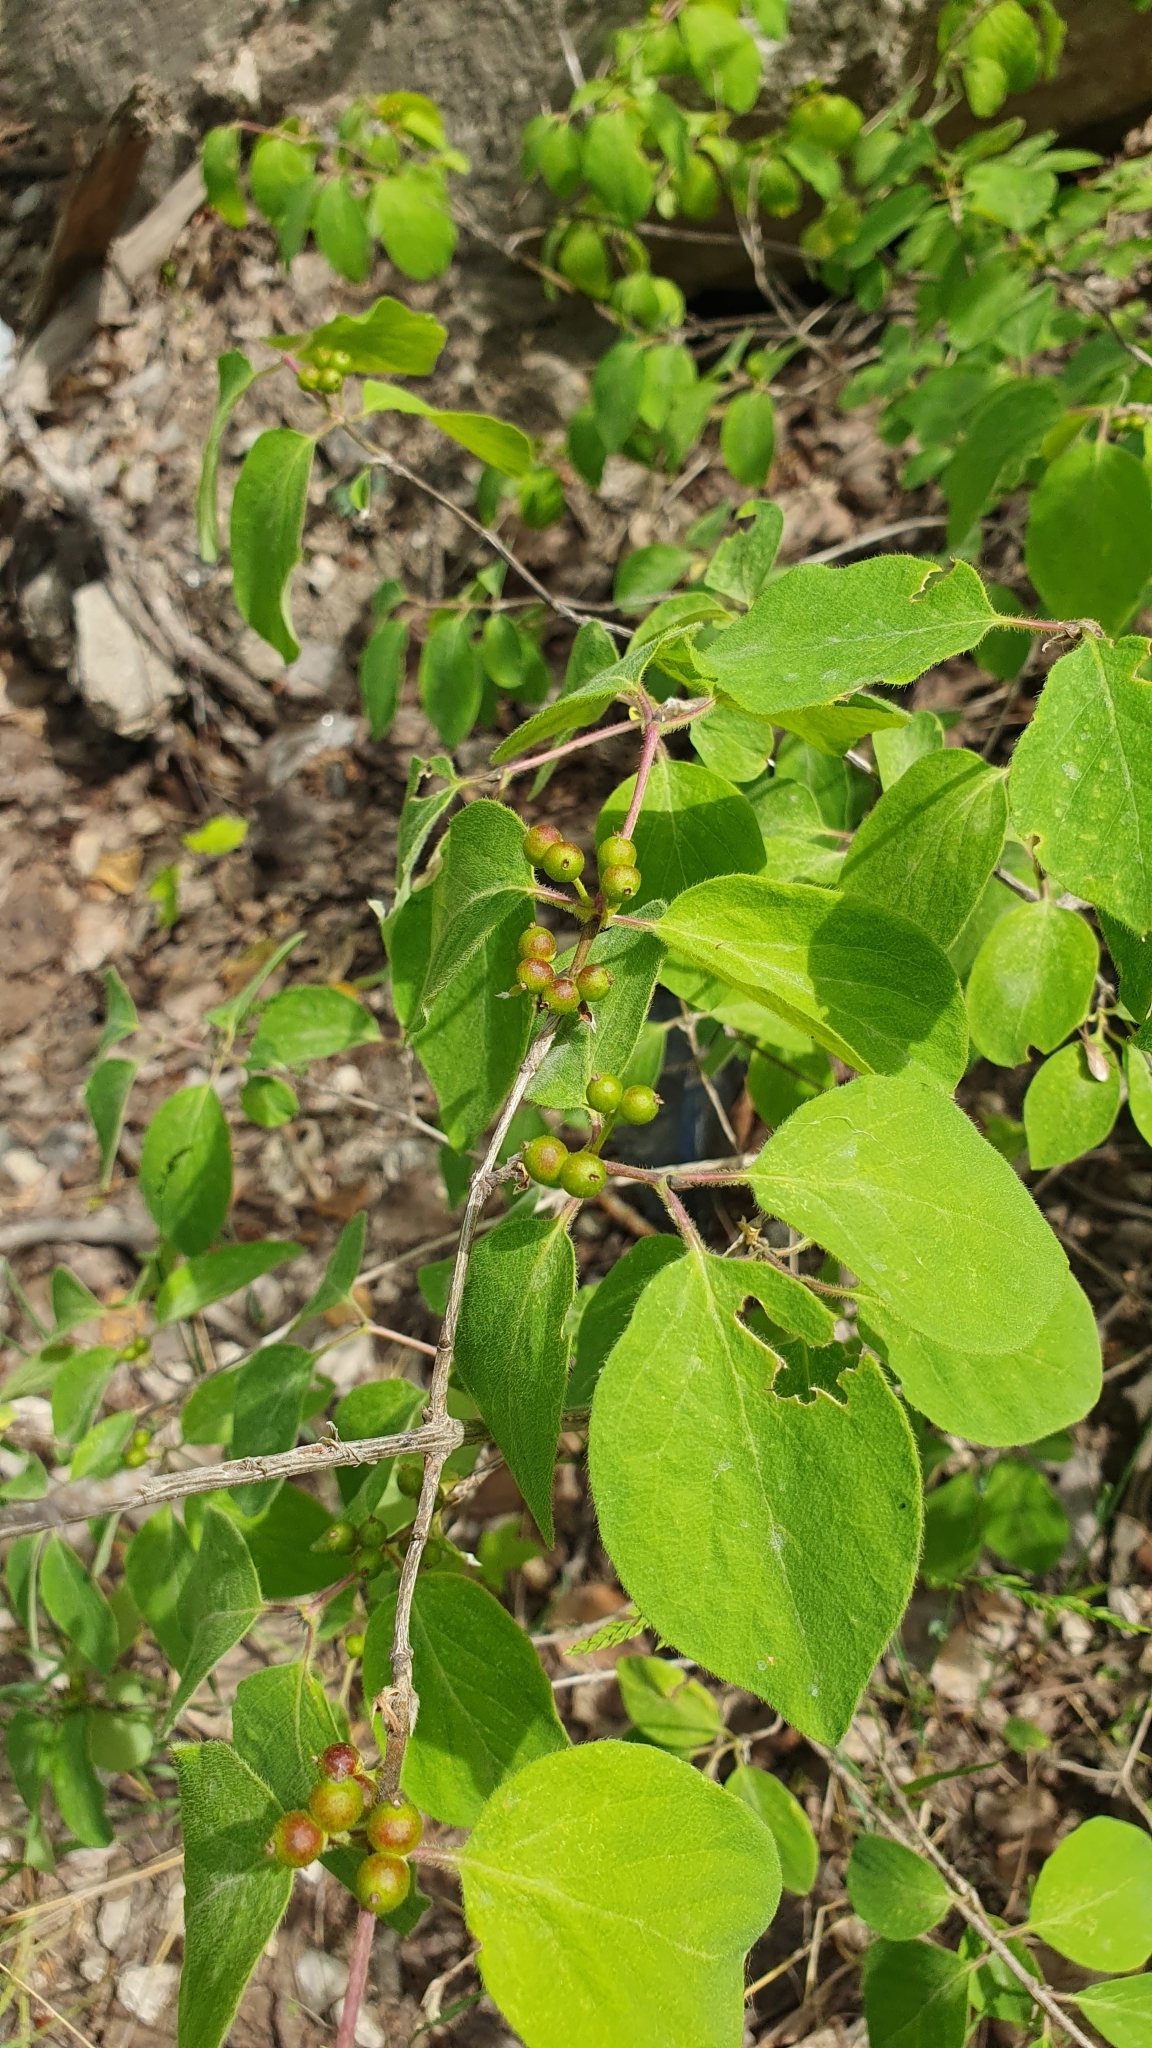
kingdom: Plantae
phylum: Tracheophyta
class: Magnoliopsida
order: Dipsacales
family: Caprifoliaceae
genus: Lonicera
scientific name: Lonicera xylosteum
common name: Fly honeysuckle
